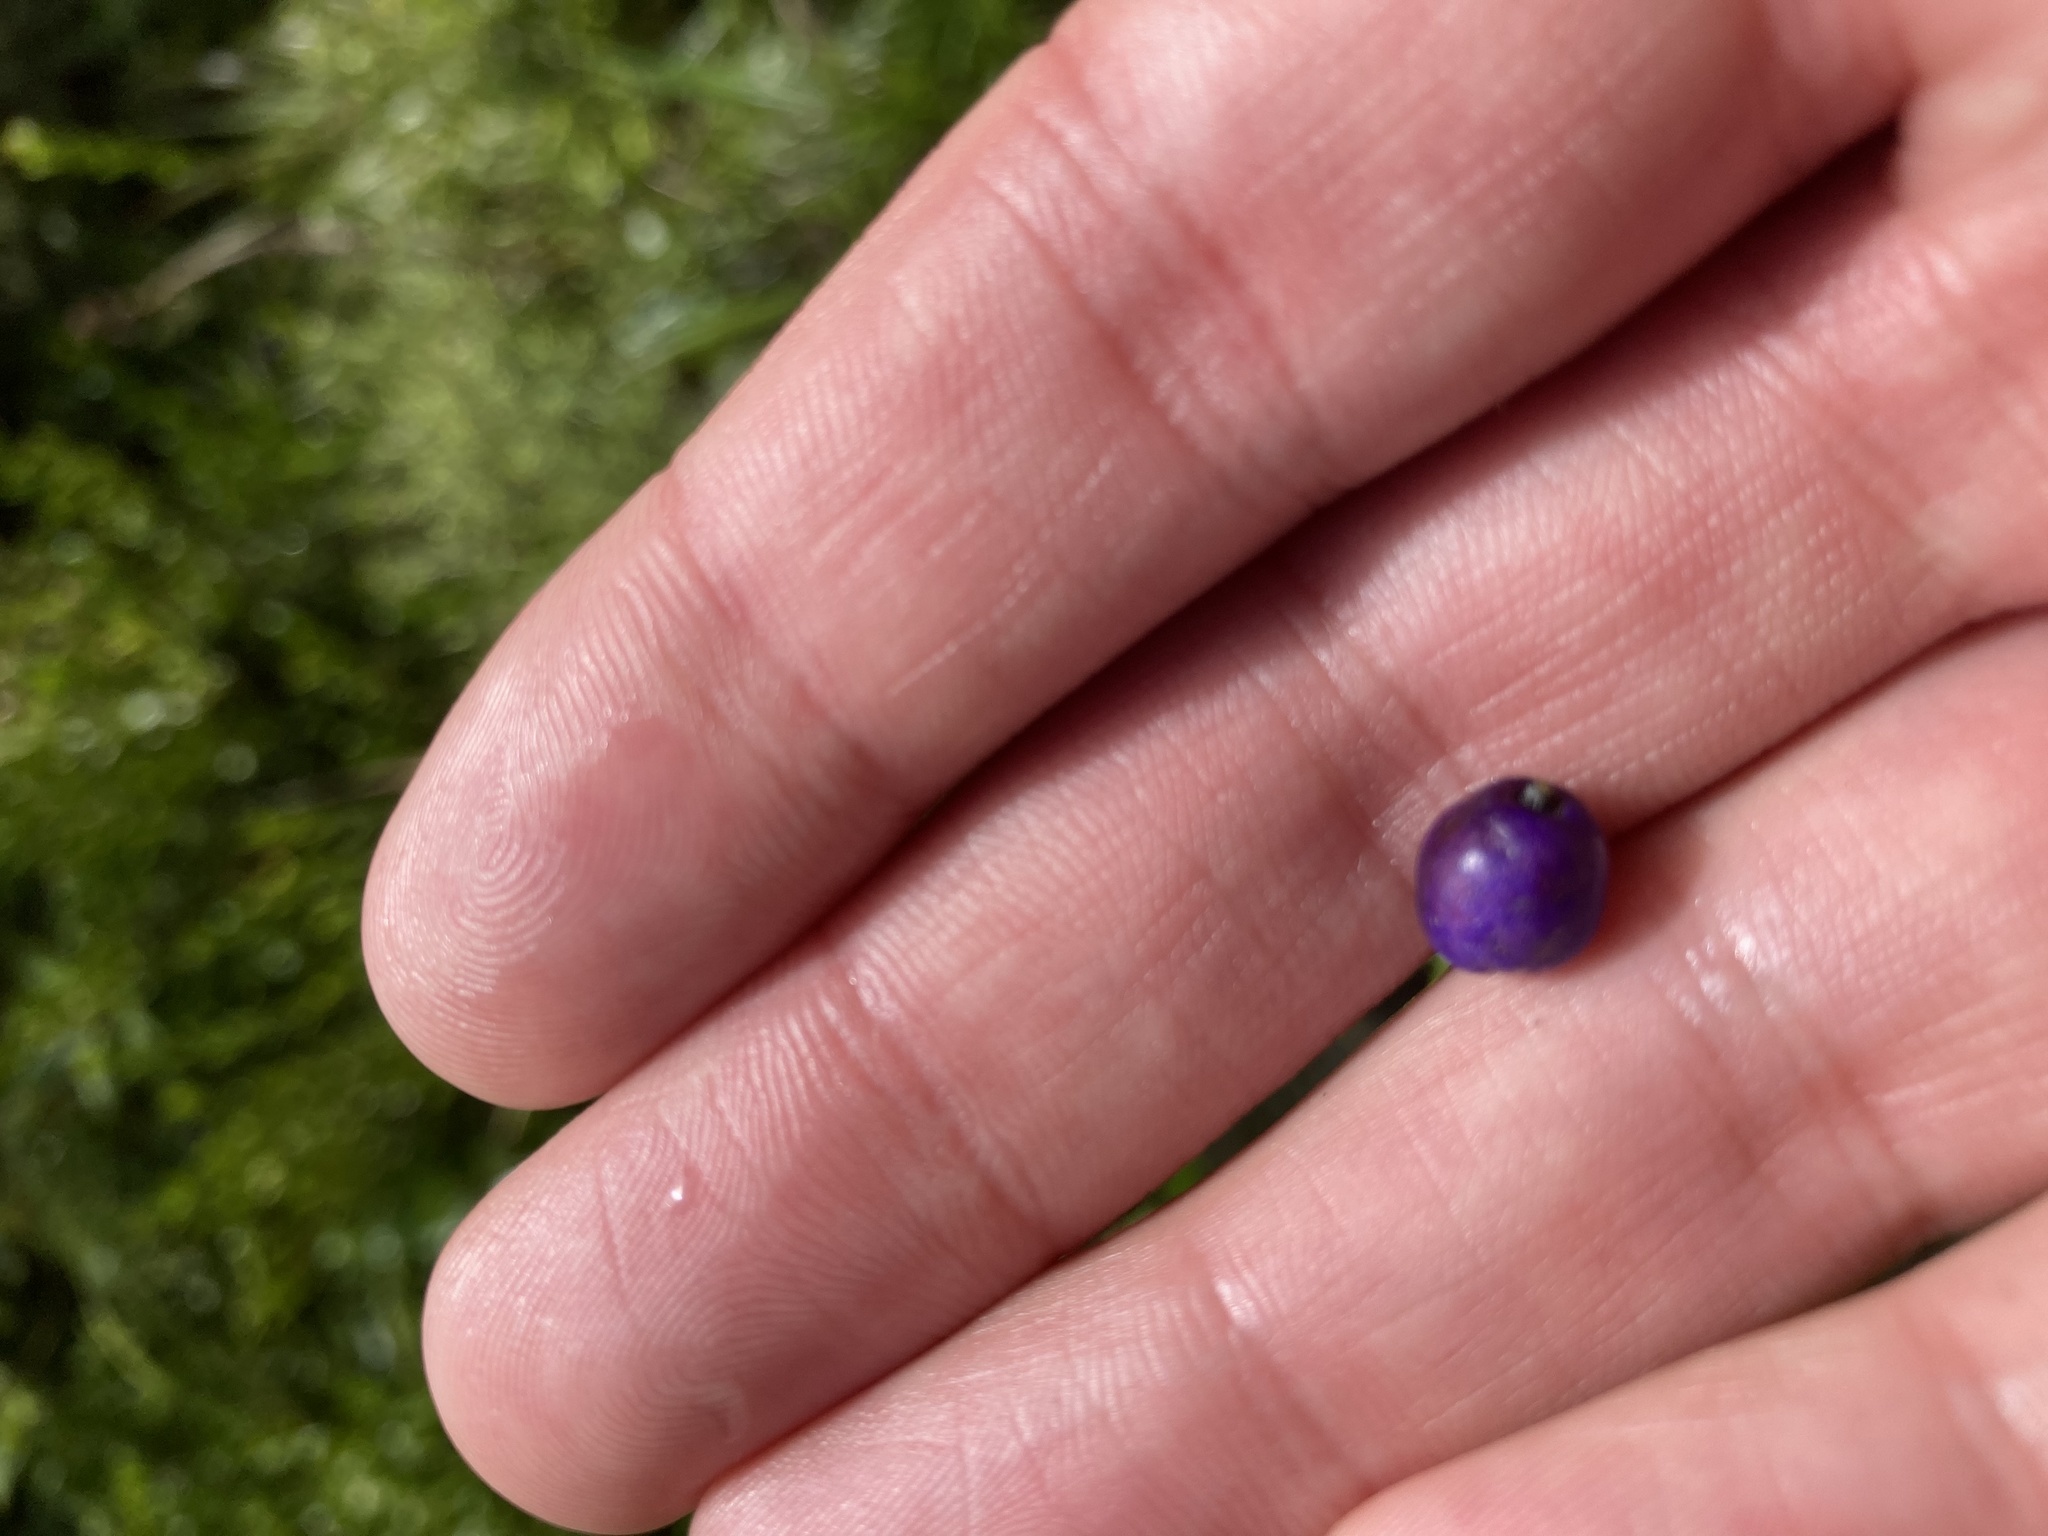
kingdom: Plantae
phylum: Tracheophyta
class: Liliopsida
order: Asparagales
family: Asphodelaceae
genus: Dianella
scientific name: Dianella nigra
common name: New zealand-blueberry
